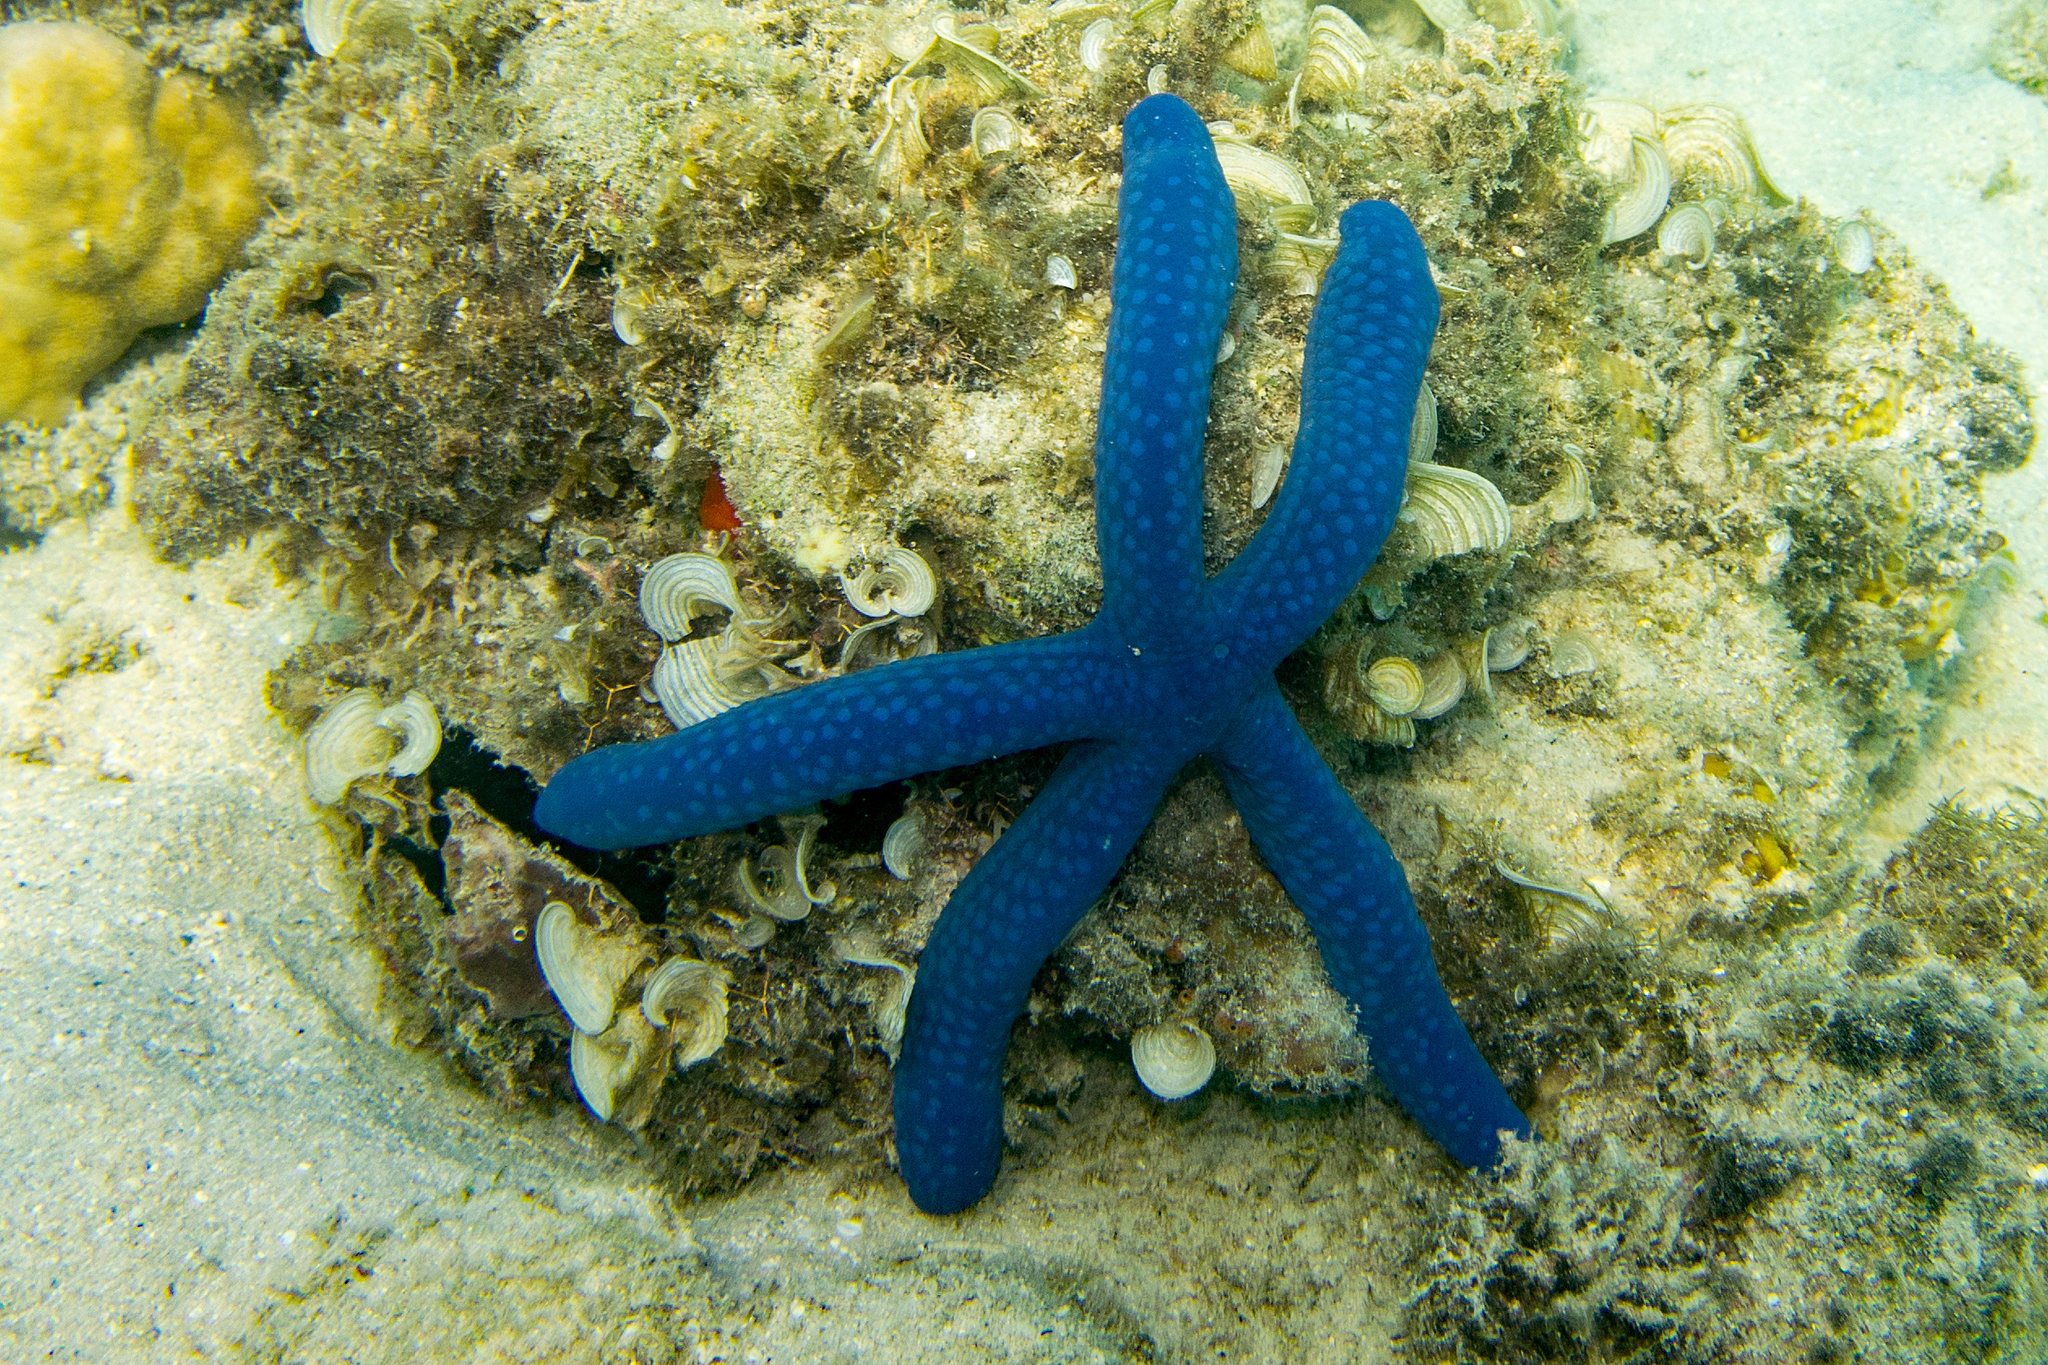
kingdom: Animalia
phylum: Echinodermata
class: Asteroidea
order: Valvatida
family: Ophidiasteridae
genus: Linckia
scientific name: Linckia laevigata
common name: Azure sea star
